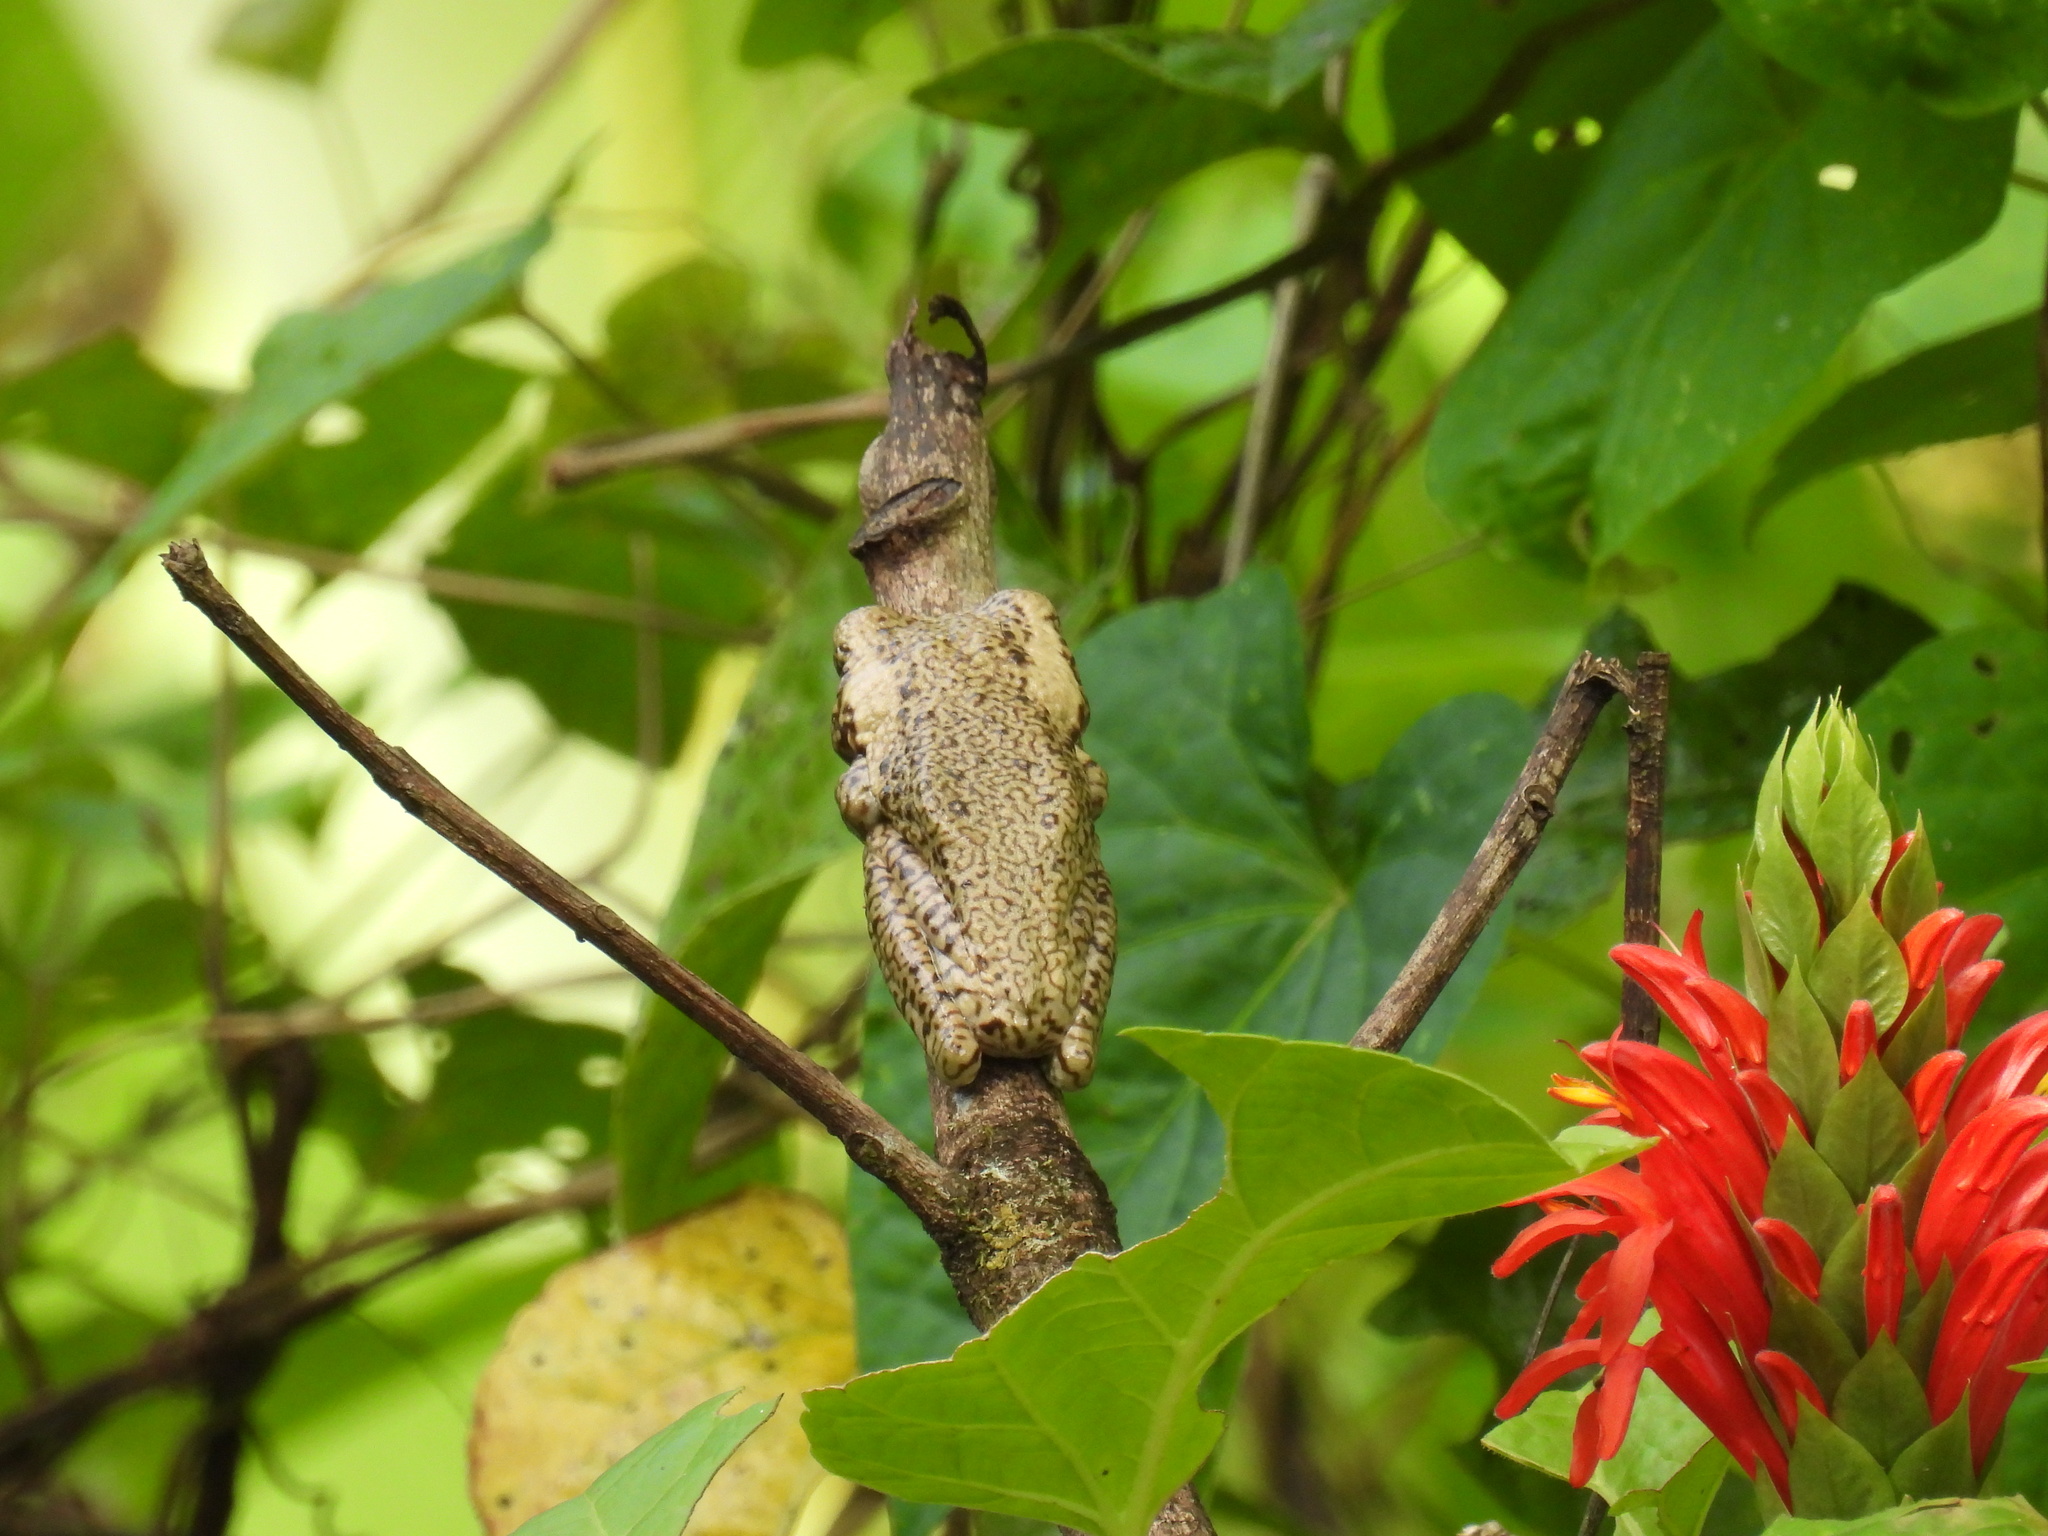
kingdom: Animalia
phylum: Chordata
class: Amphibia
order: Anura
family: Hylidae
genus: Trachycephalus
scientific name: Trachycephalus typhonius
